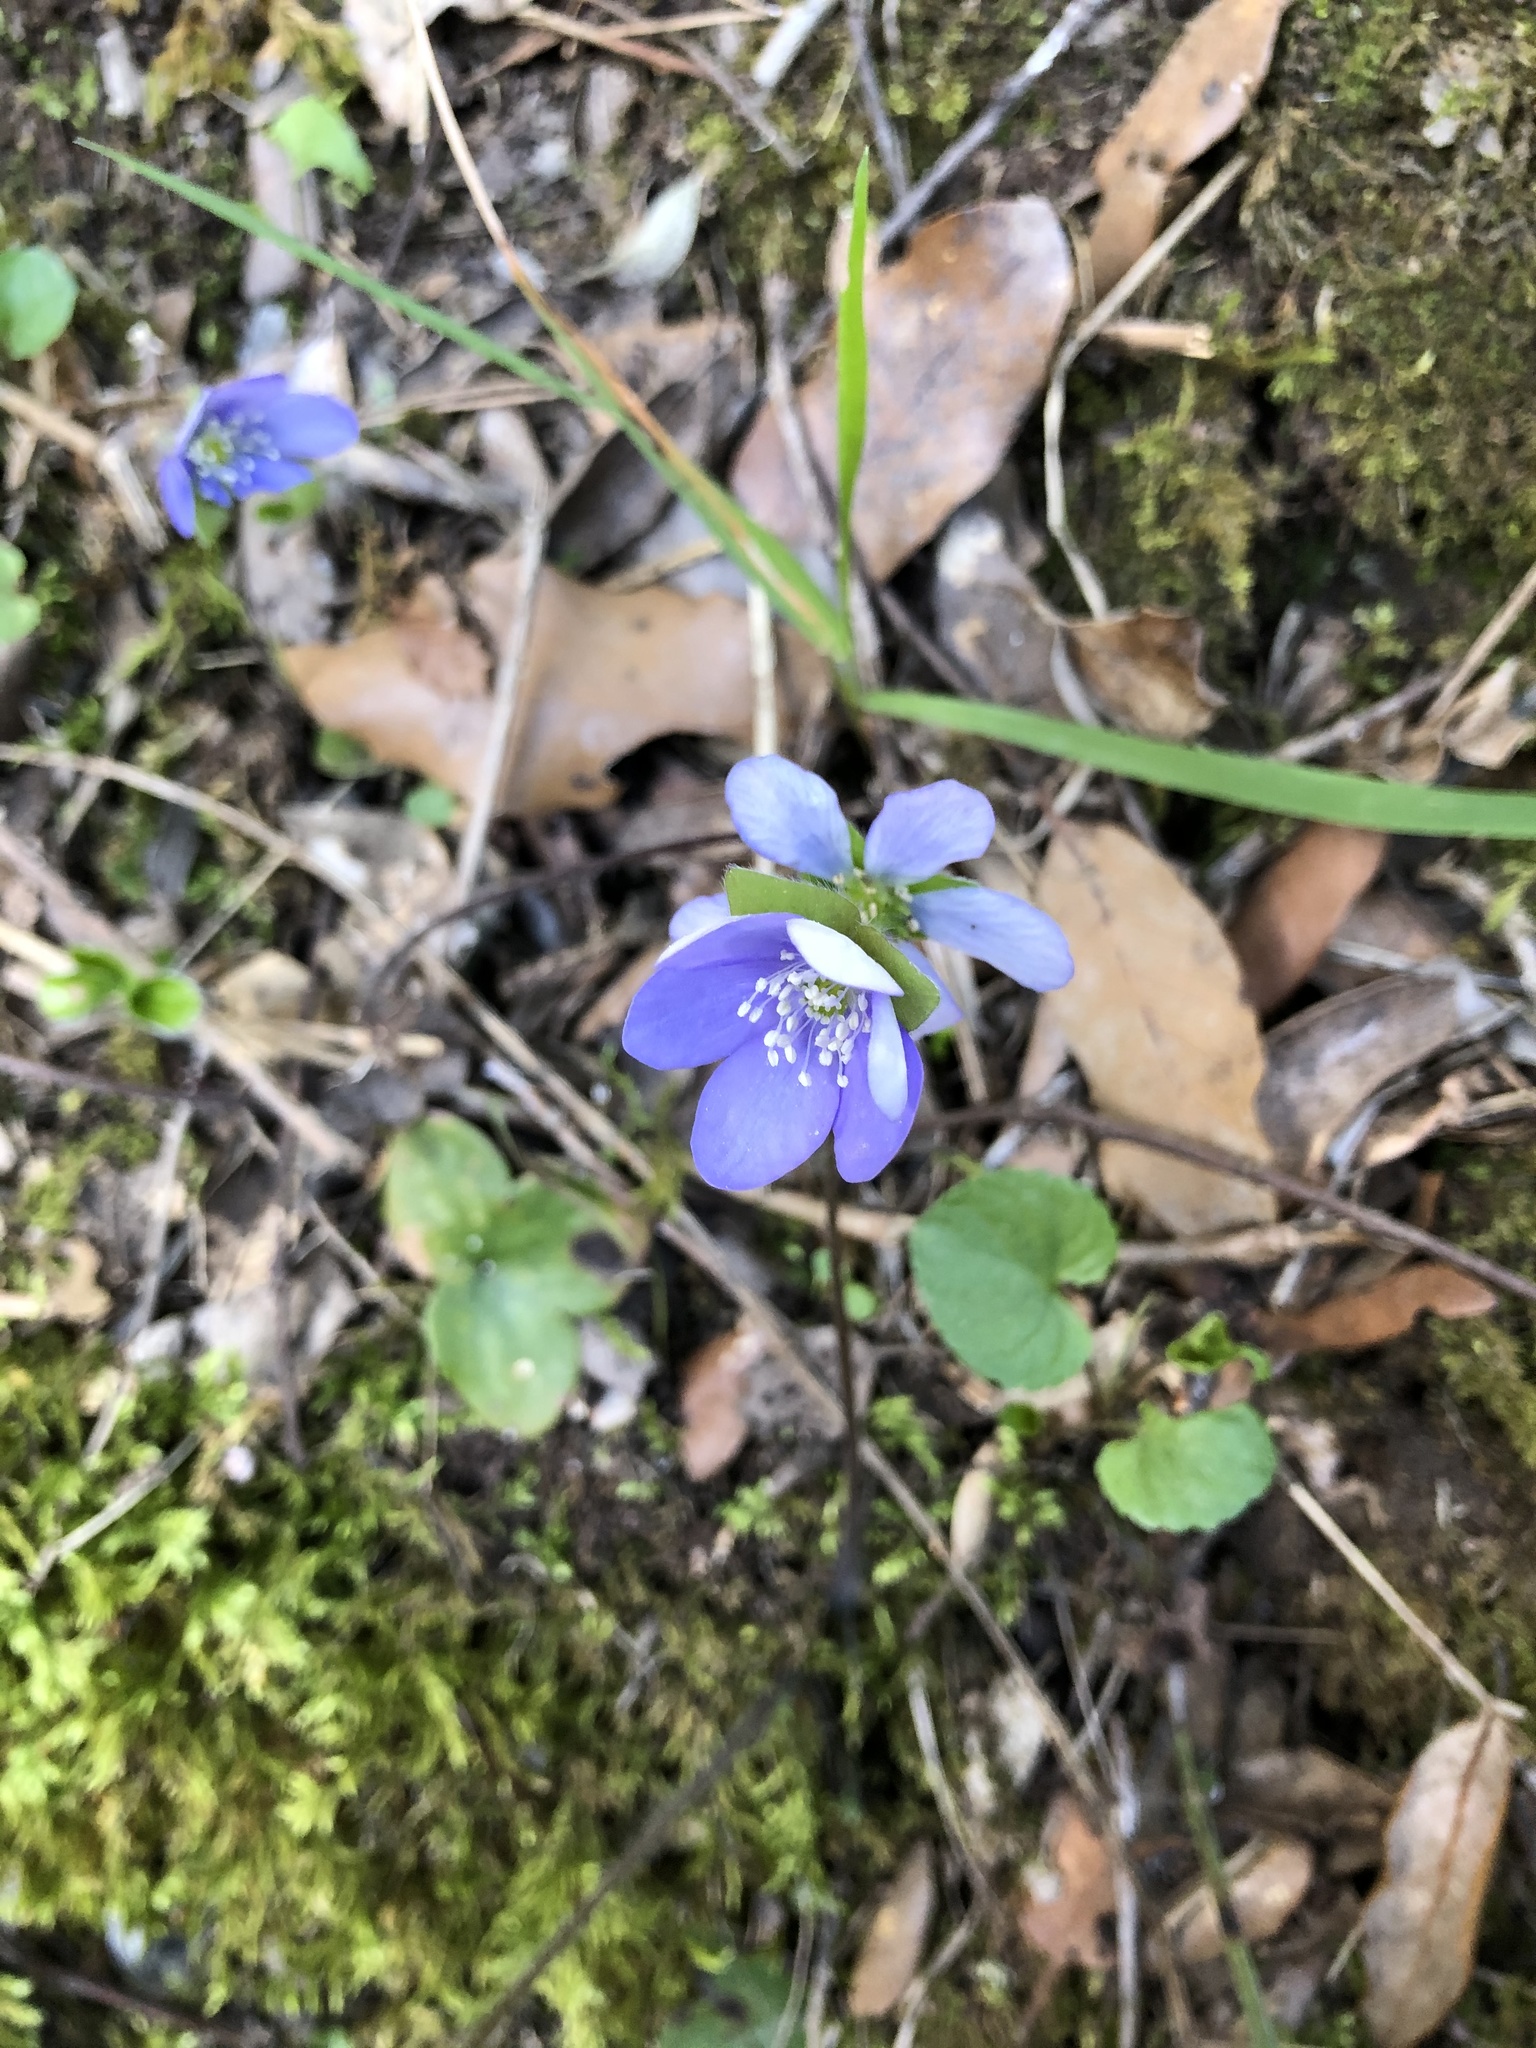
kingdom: Plantae
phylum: Tracheophyta
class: Magnoliopsida
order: Ranunculales
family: Ranunculaceae
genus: Hepatica
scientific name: Hepatica nobilis
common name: Liverleaf
